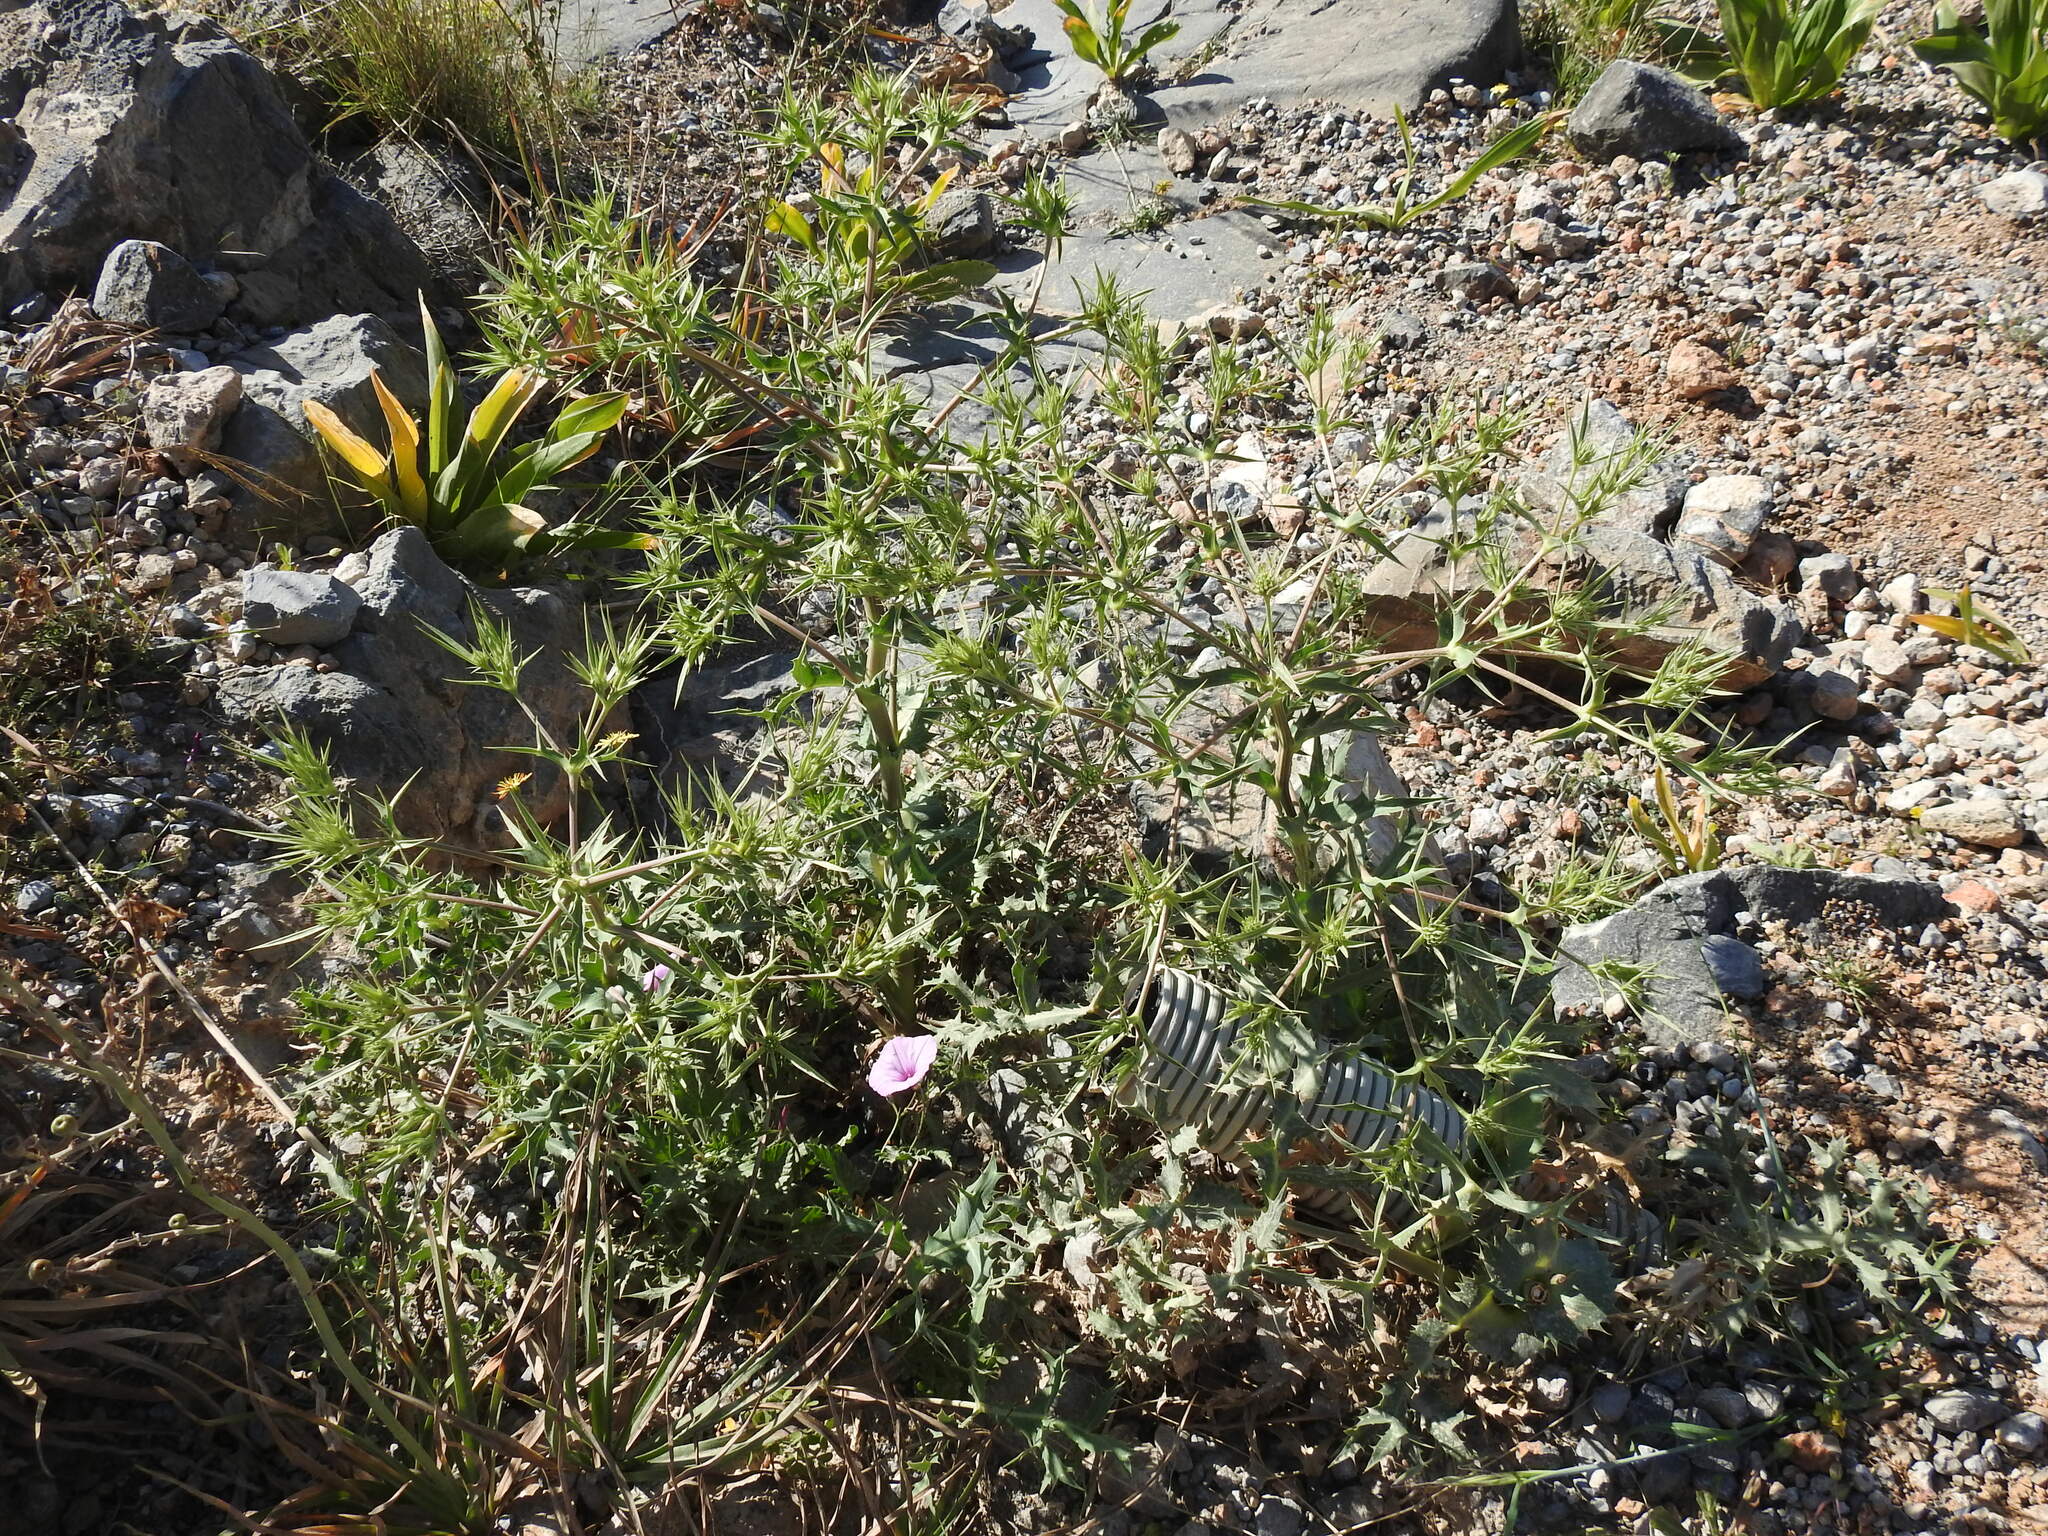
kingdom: Plantae
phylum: Tracheophyta
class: Magnoliopsida
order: Apiales
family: Apiaceae
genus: Eryngium
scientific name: Eryngium campestre
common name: Field eryngo
